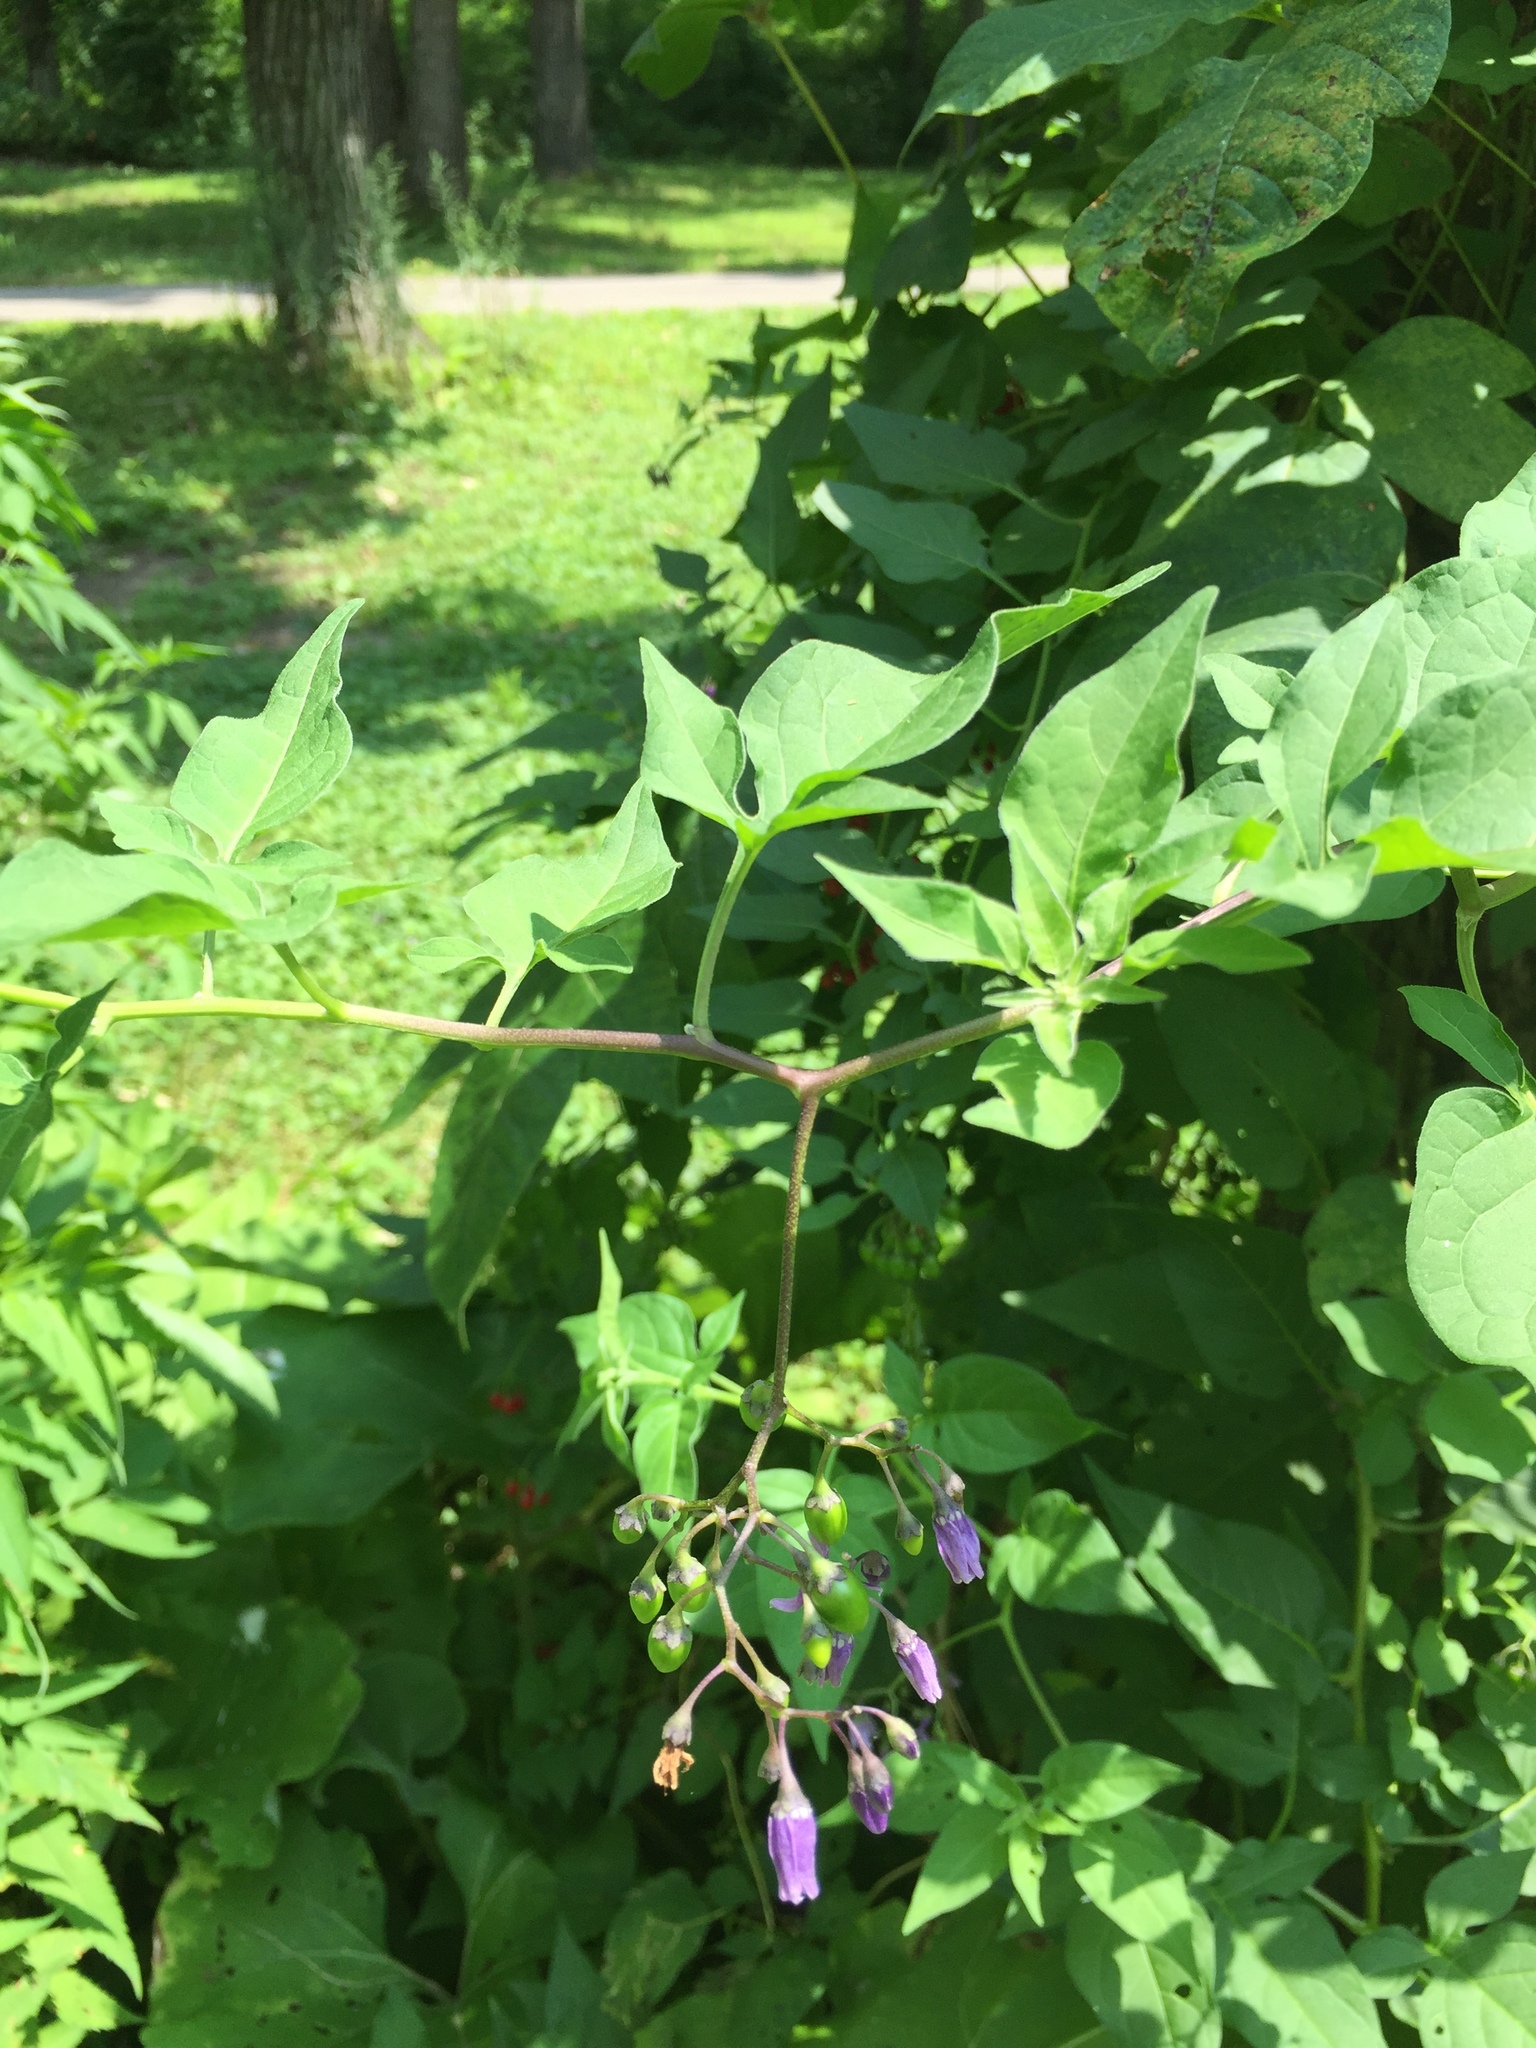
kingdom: Plantae
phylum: Tracheophyta
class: Magnoliopsida
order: Solanales
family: Solanaceae
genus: Solanum
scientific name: Solanum dulcamara
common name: Climbing nightshade
